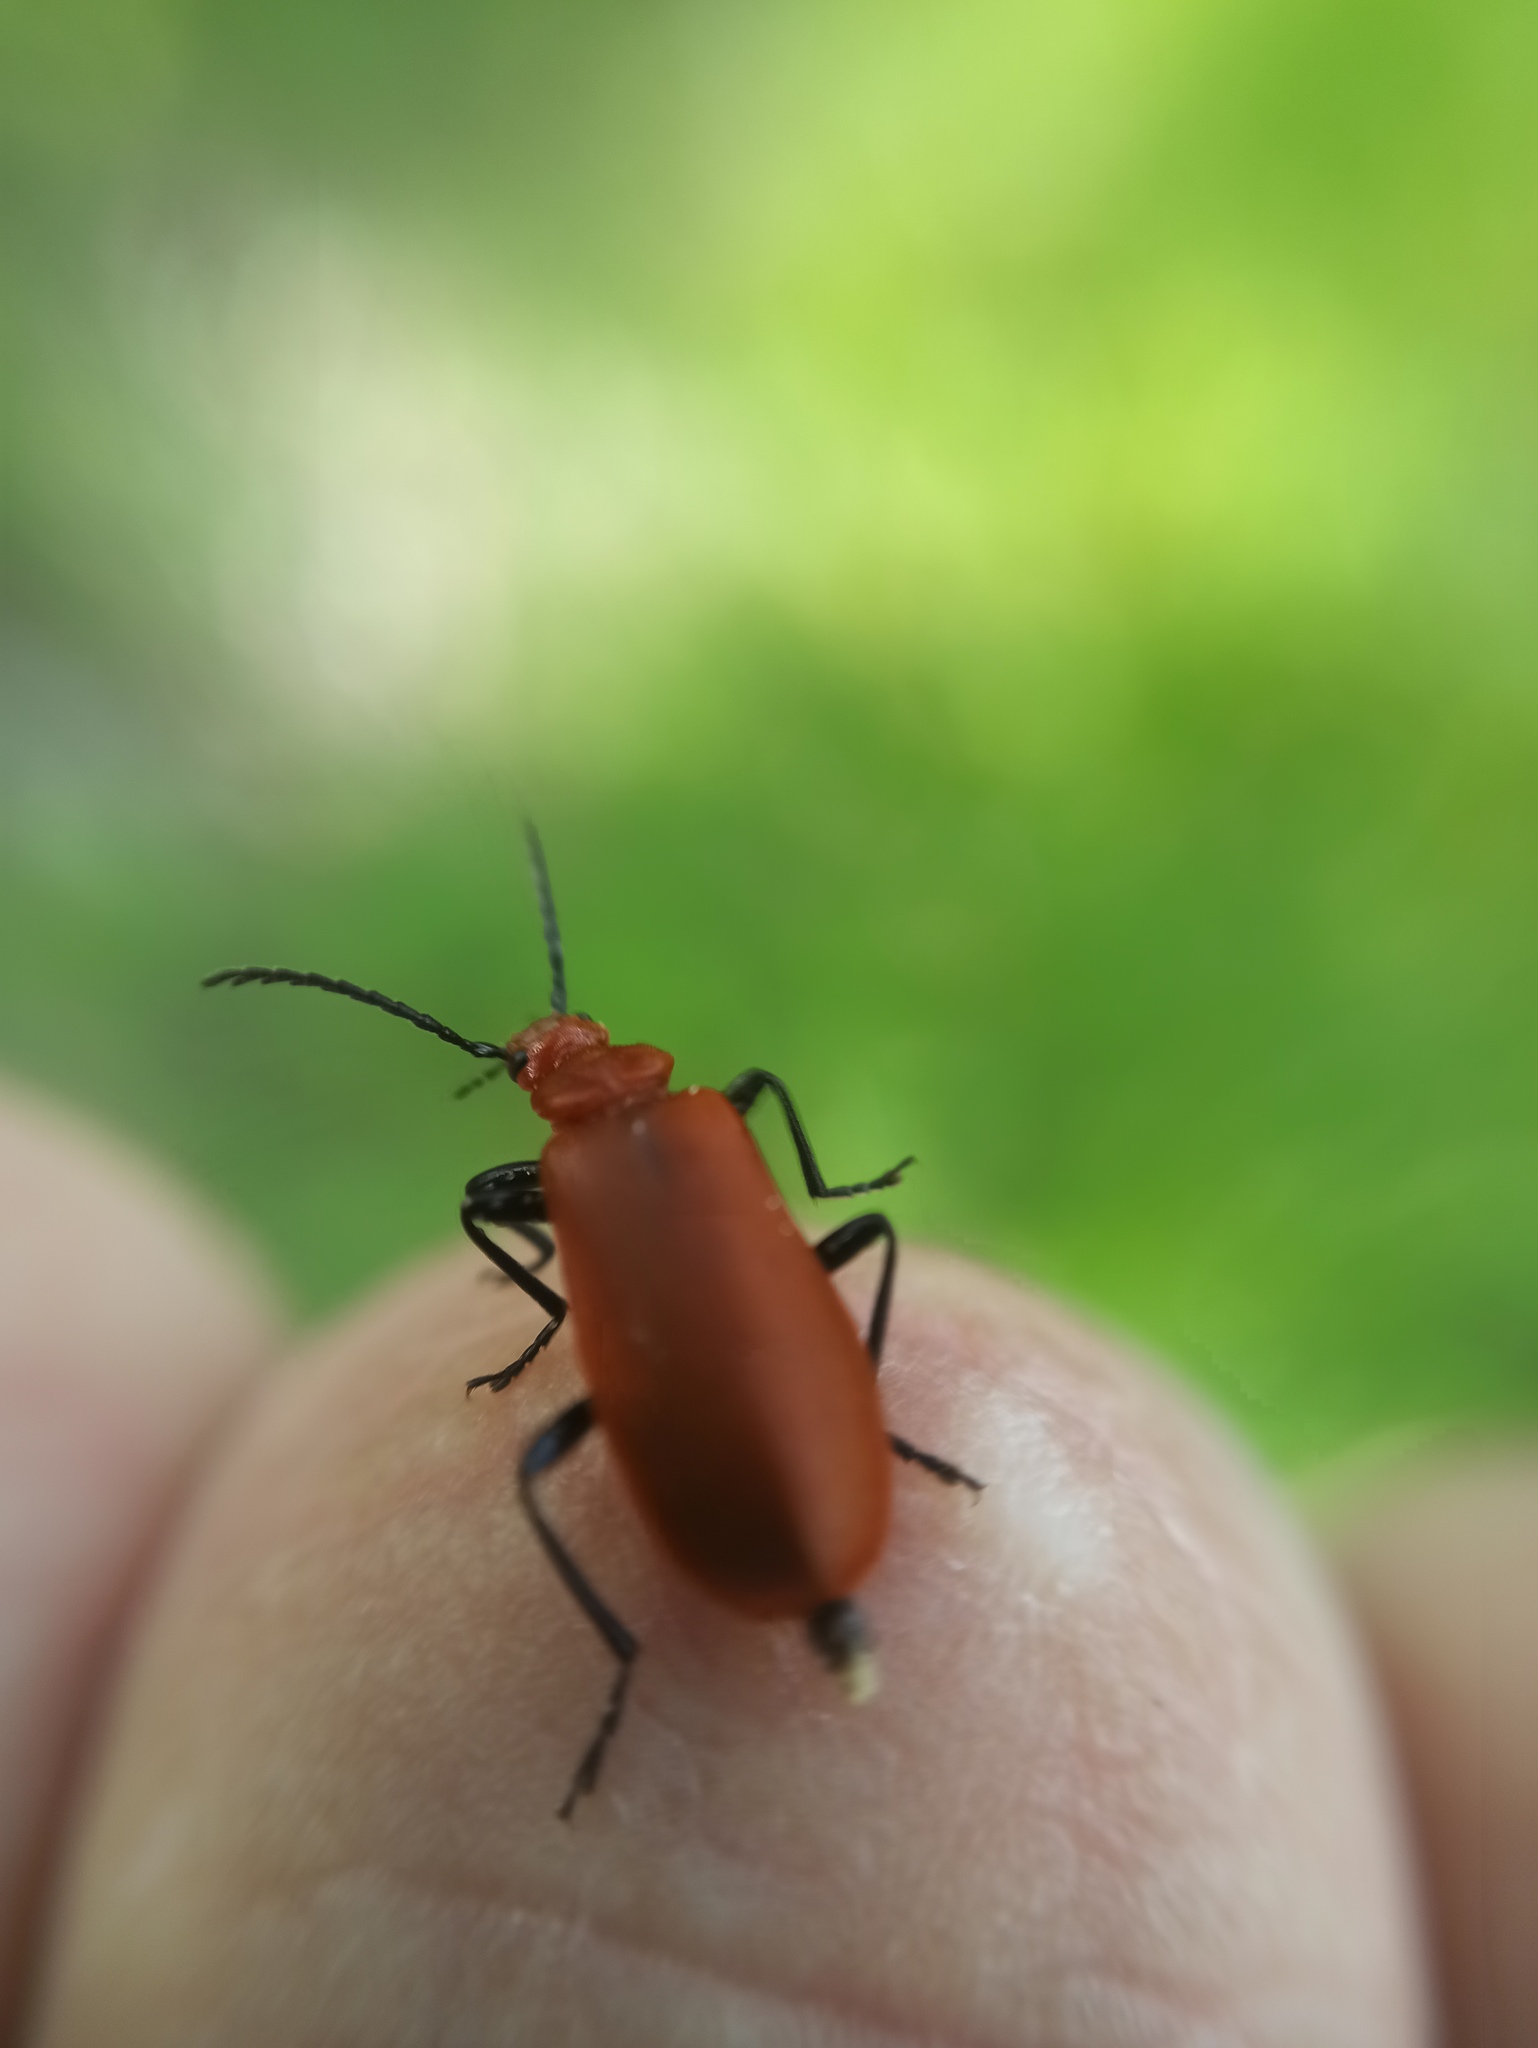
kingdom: Animalia
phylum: Arthropoda
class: Insecta
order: Coleoptera
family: Pyrochroidae
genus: Pyrochroa
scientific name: Pyrochroa serraticornis
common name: Red-headed cardinal beetle
